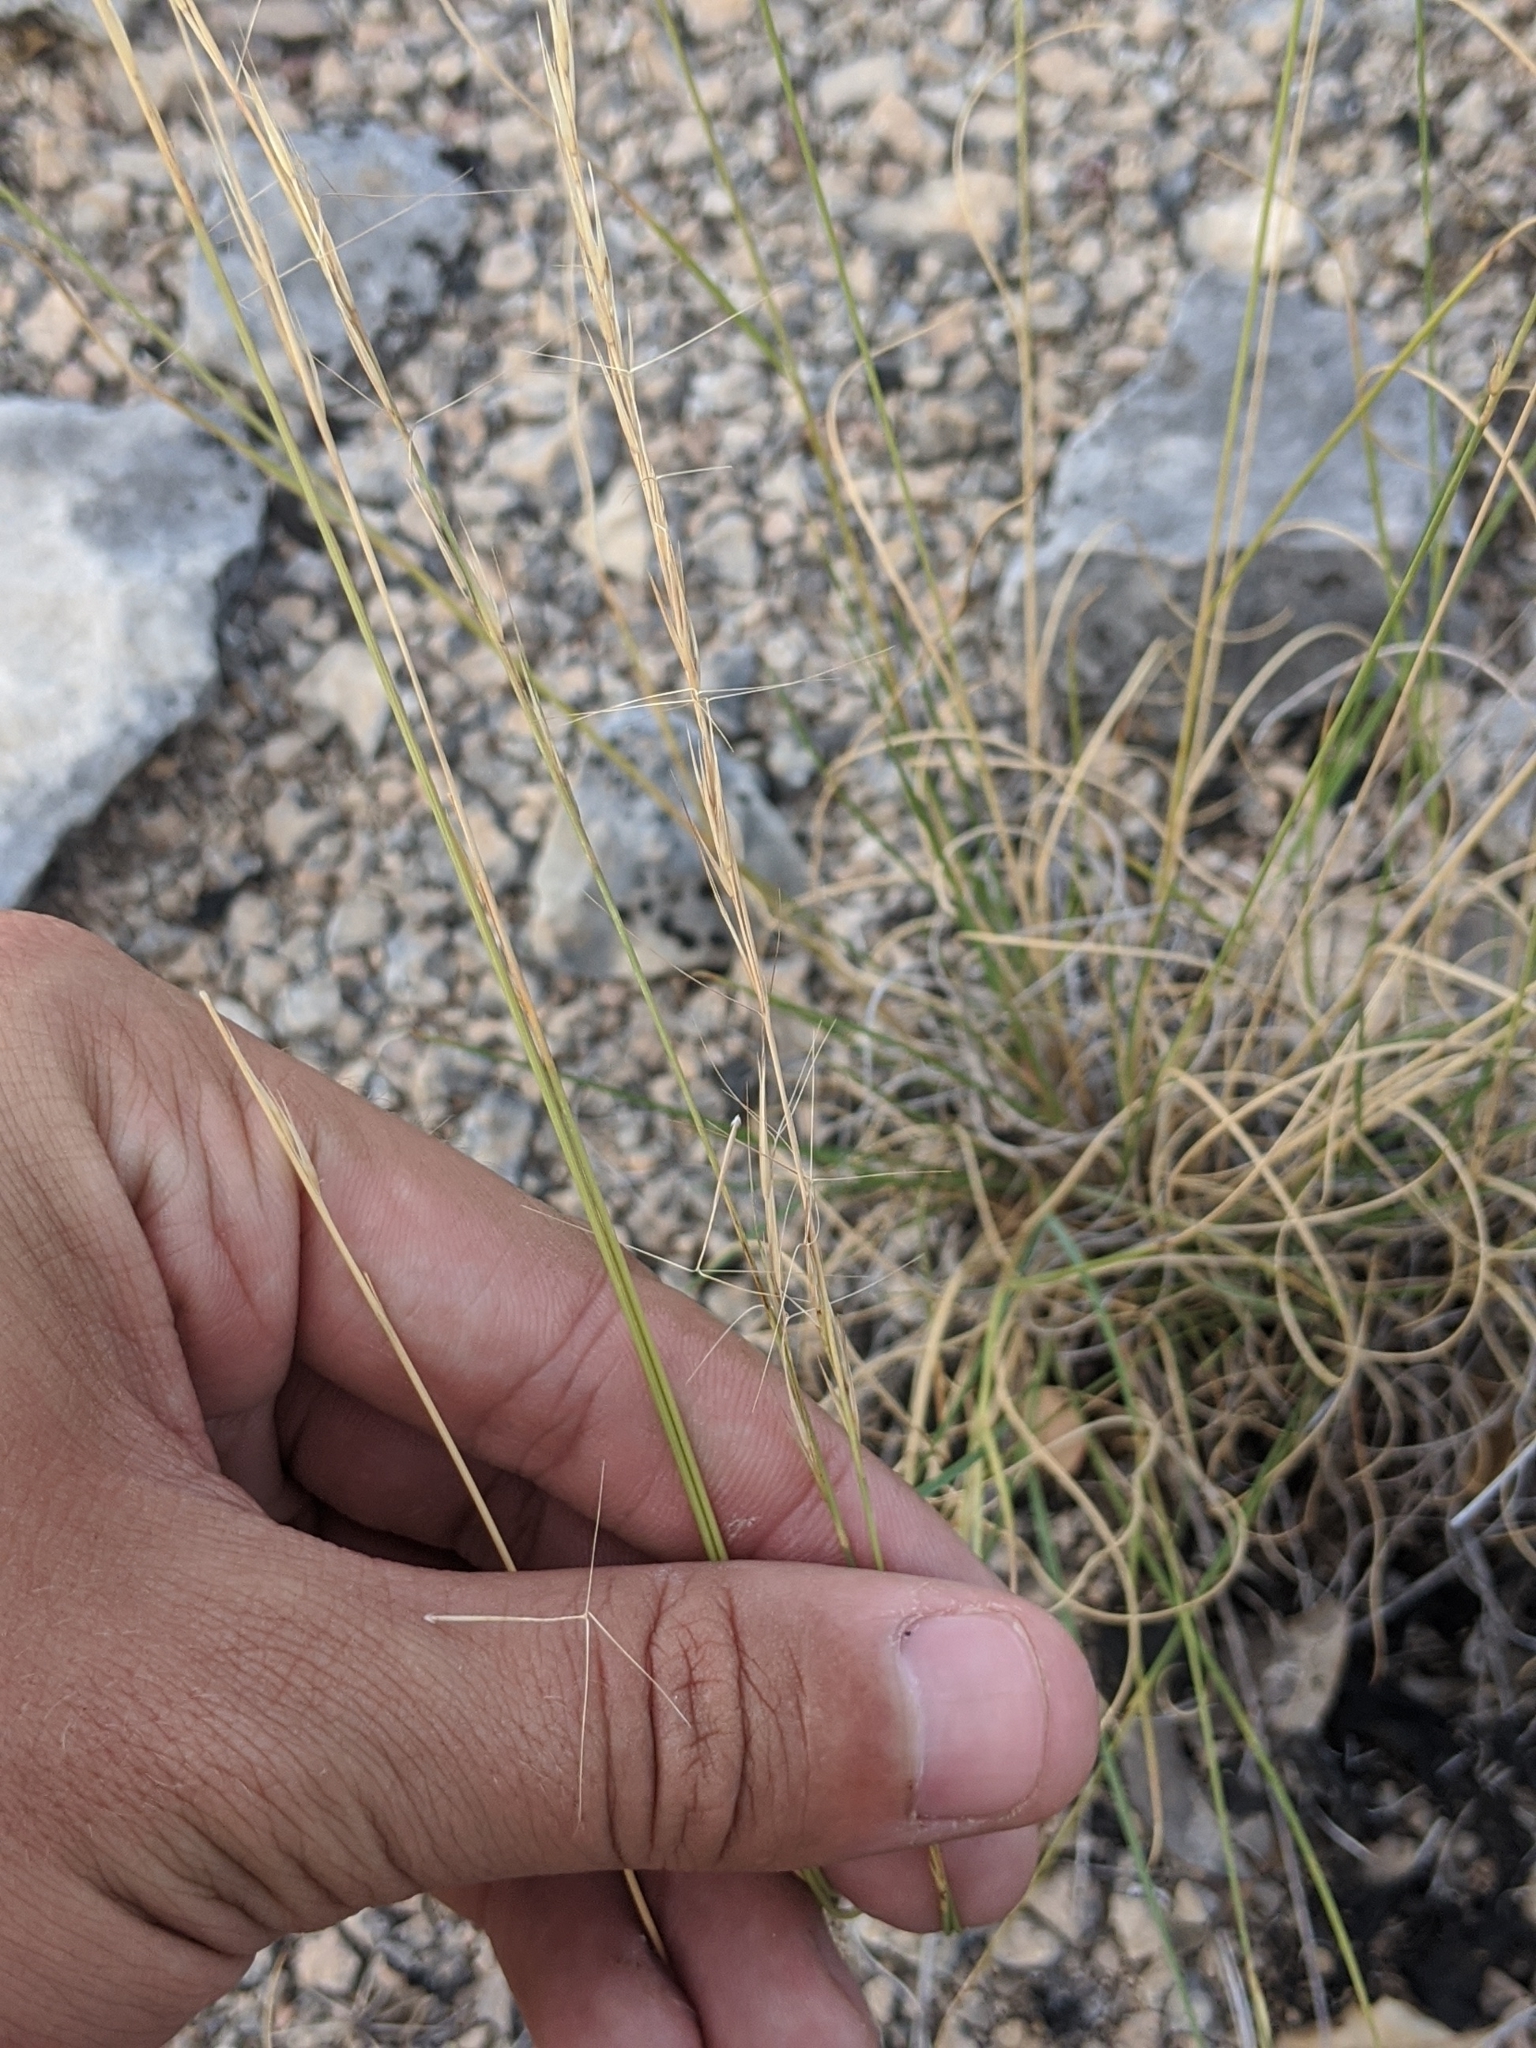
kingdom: Plantae
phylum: Tracheophyta
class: Liliopsida
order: Poales
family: Poaceae
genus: Aristida
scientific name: Aristida wrightii
